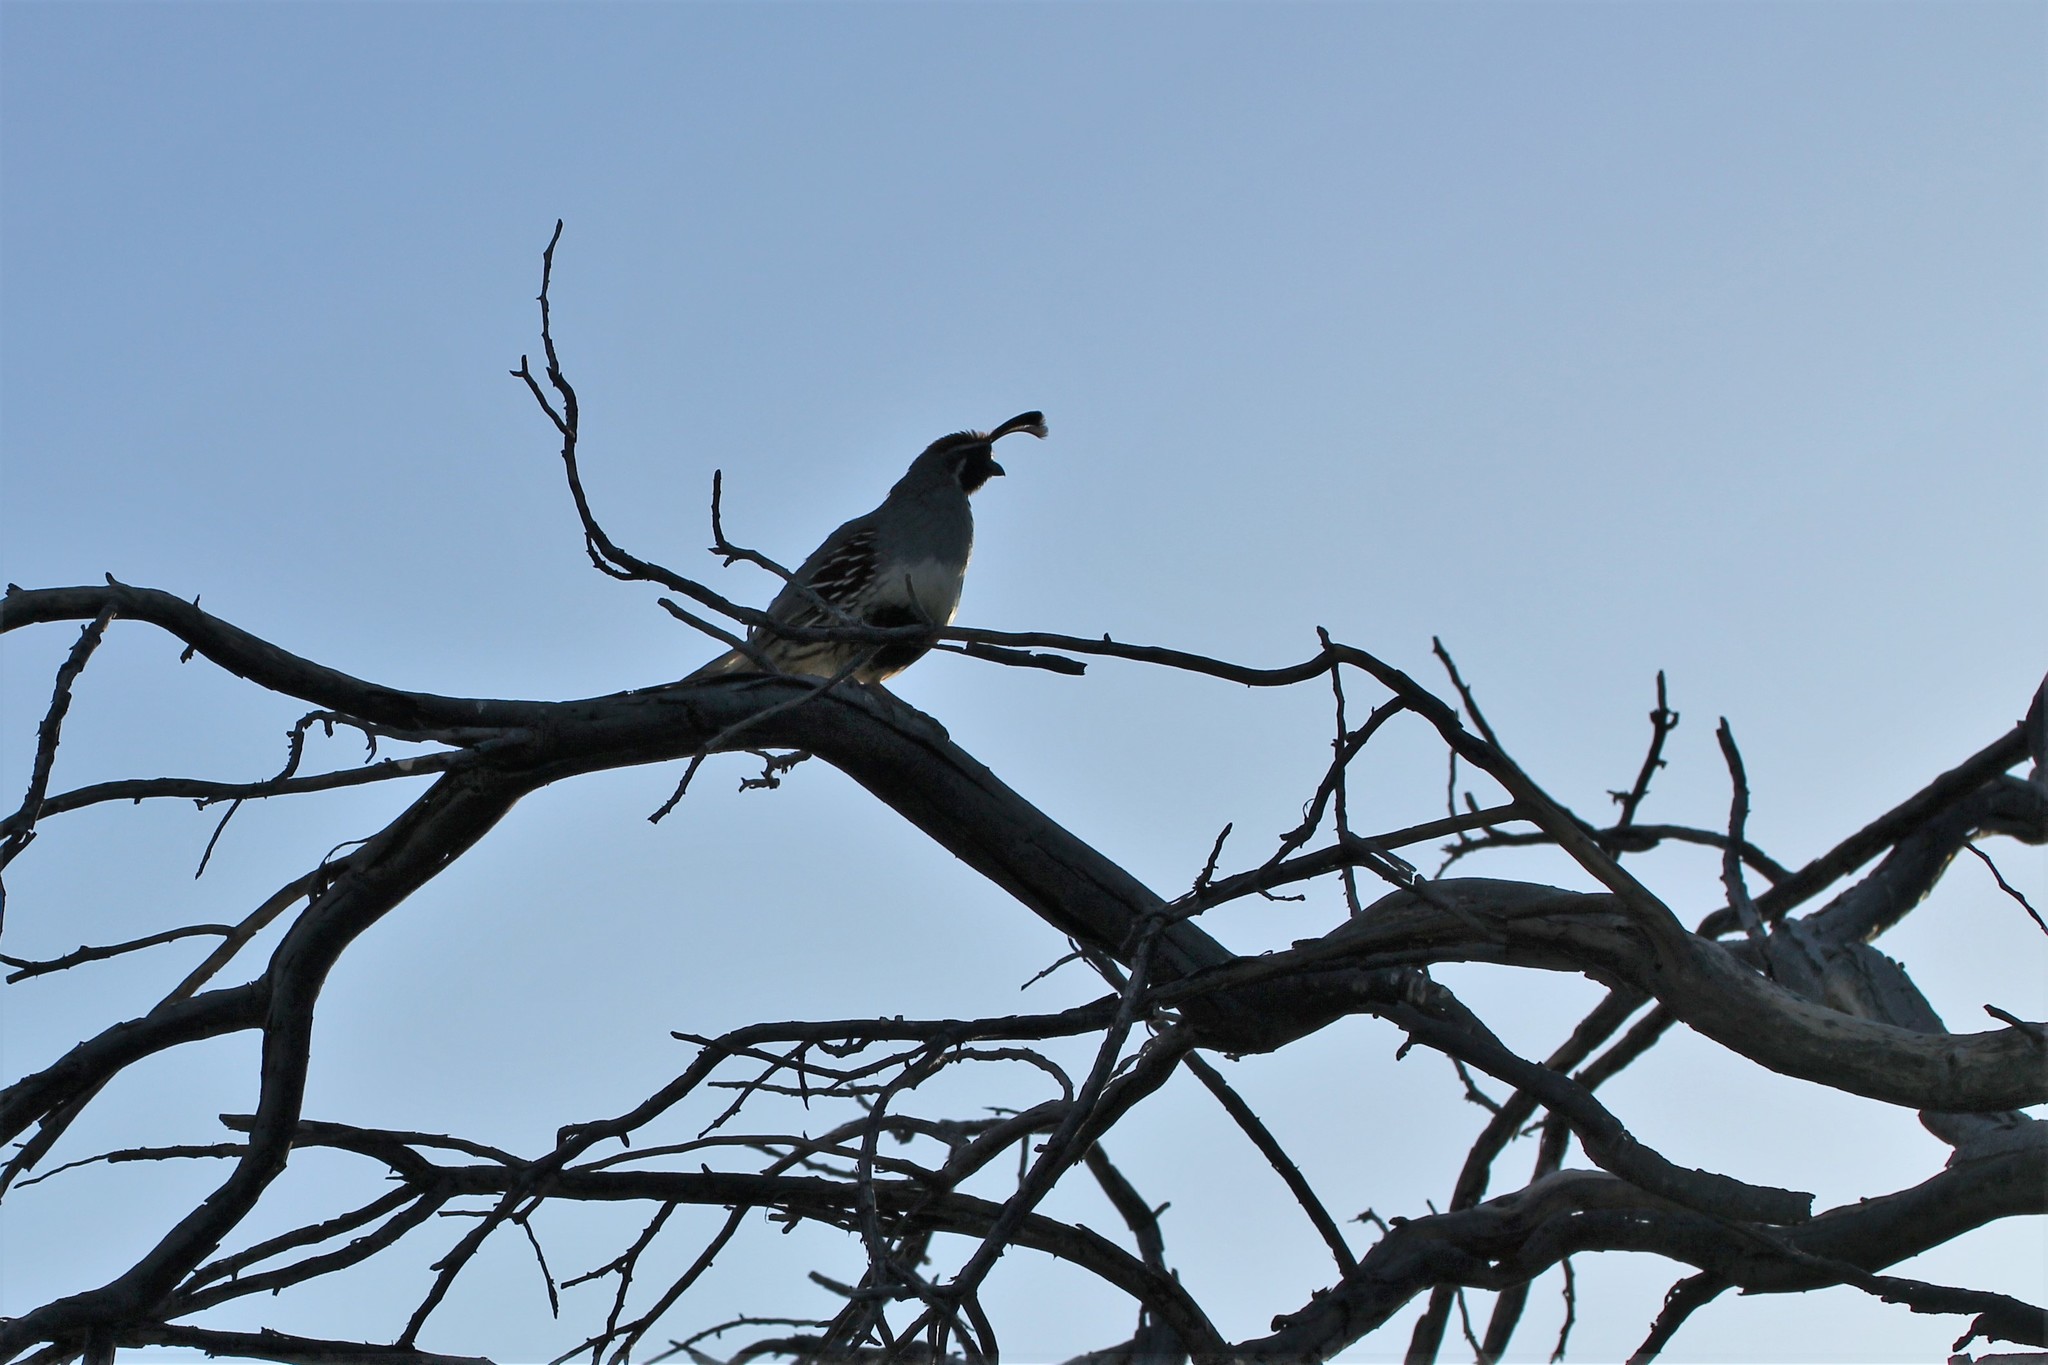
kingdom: Animalia
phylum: Chordata
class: Aves
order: Galliformes
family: Odontophoridae
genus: Callipepla
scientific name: Callipepla gambelii
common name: Gambel's quail
